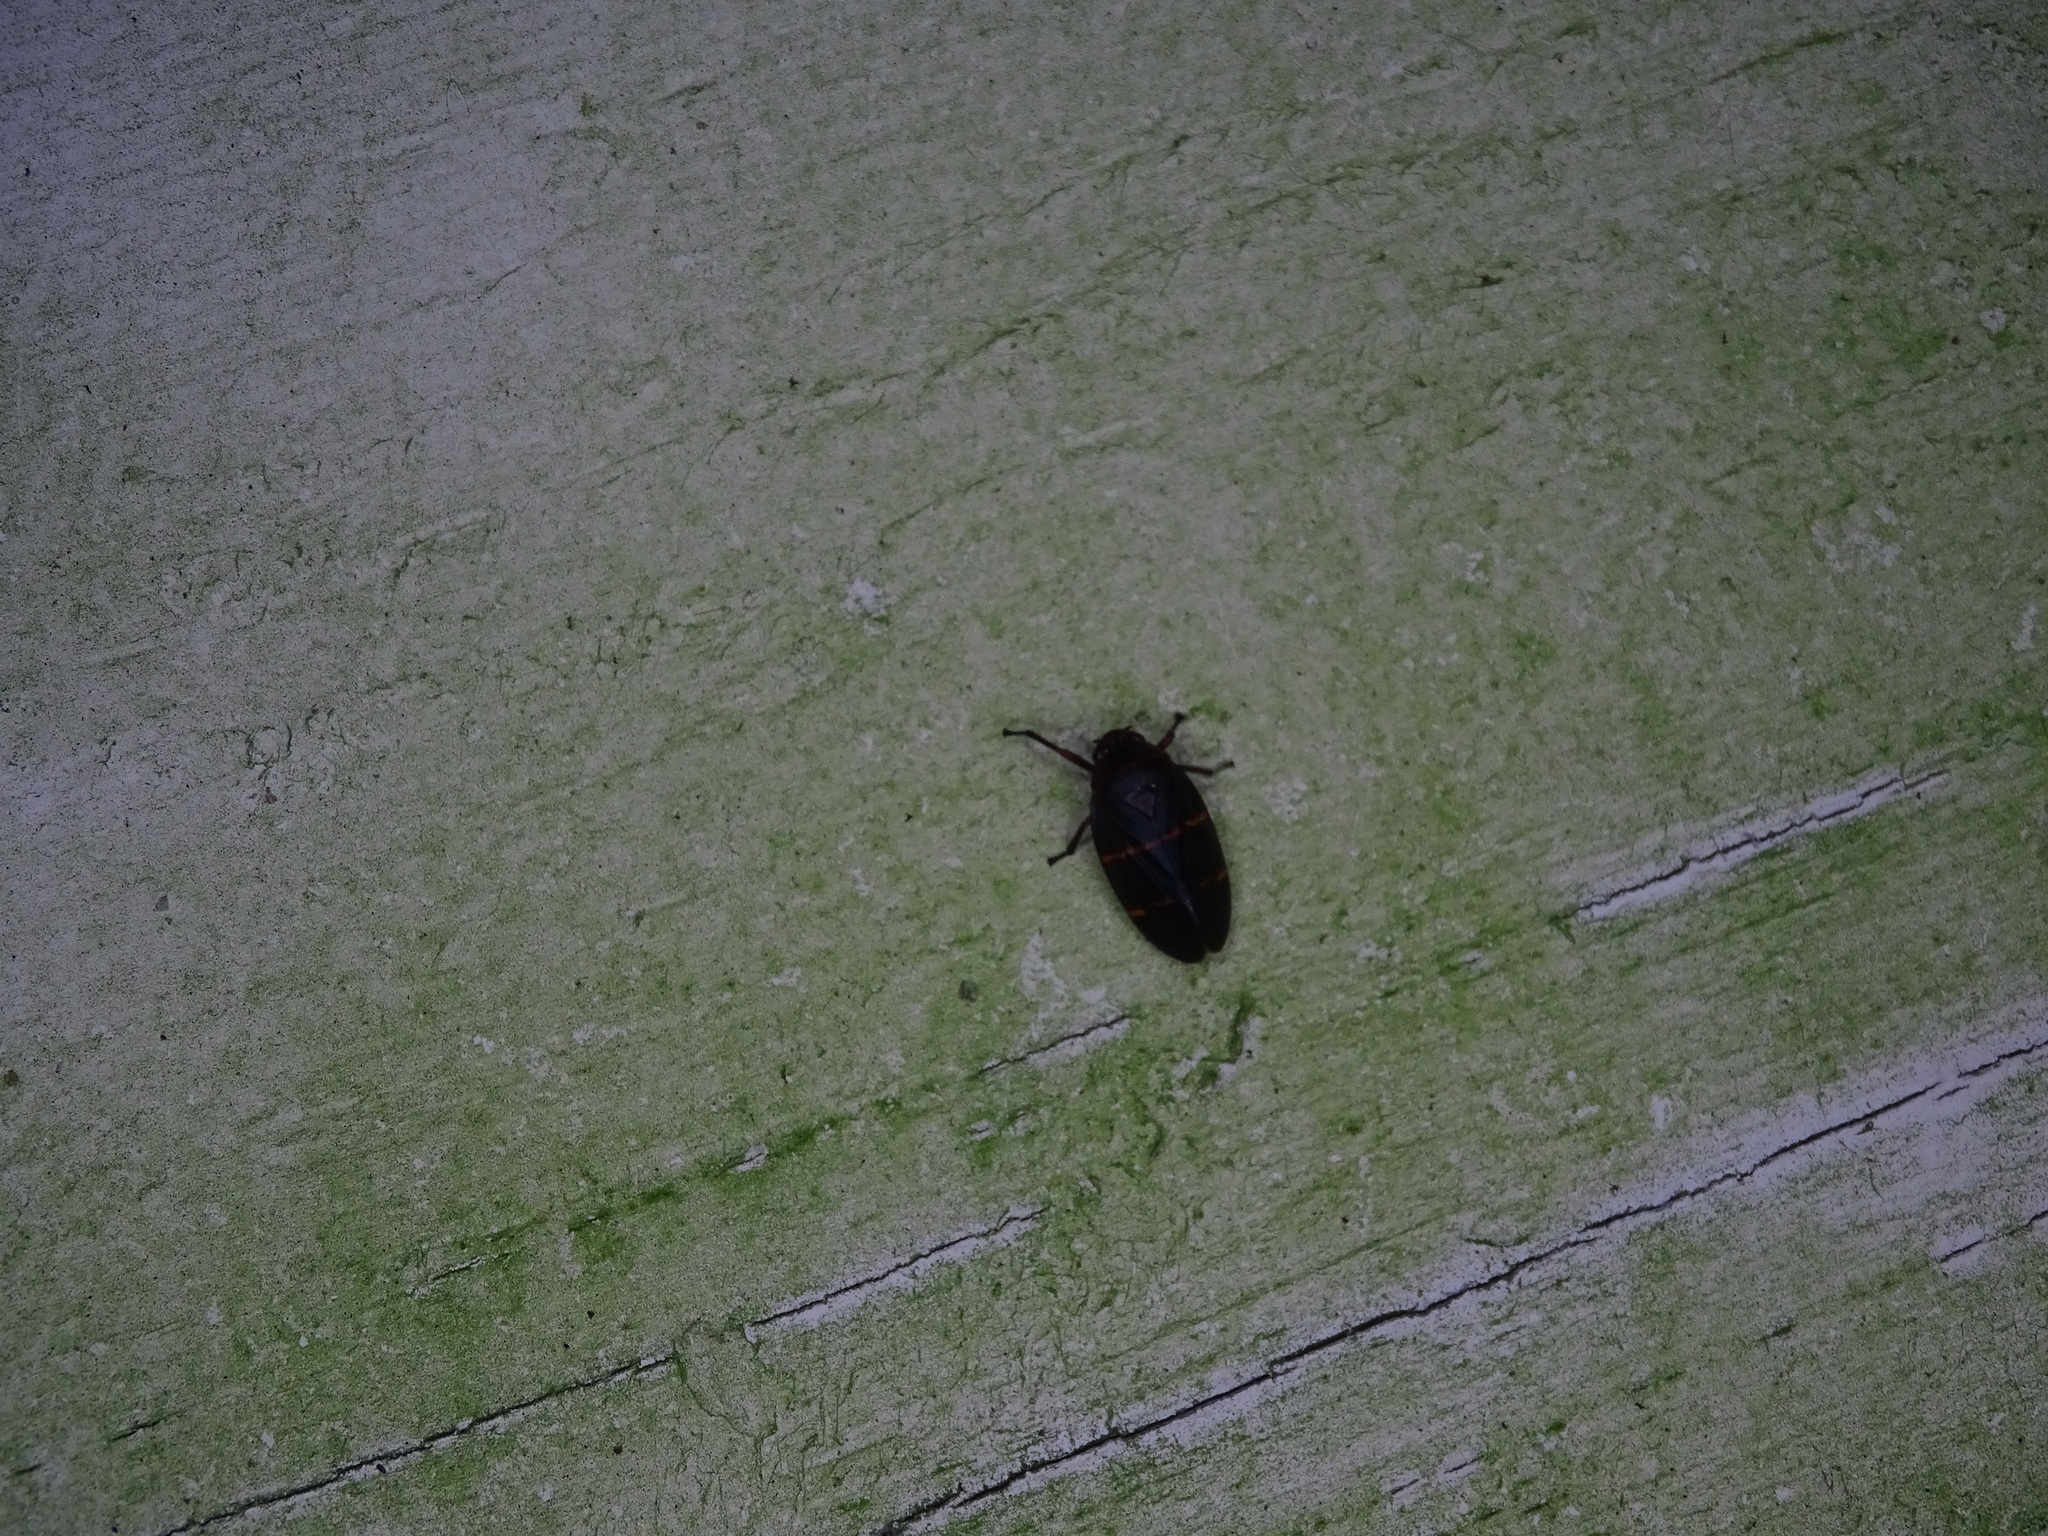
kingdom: Animalia
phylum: Arthropoda
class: Insecta
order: Hemiptera
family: Cercopidae
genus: Prosapia
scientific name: Prosapia bicincta
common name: Twolined spittlebug
